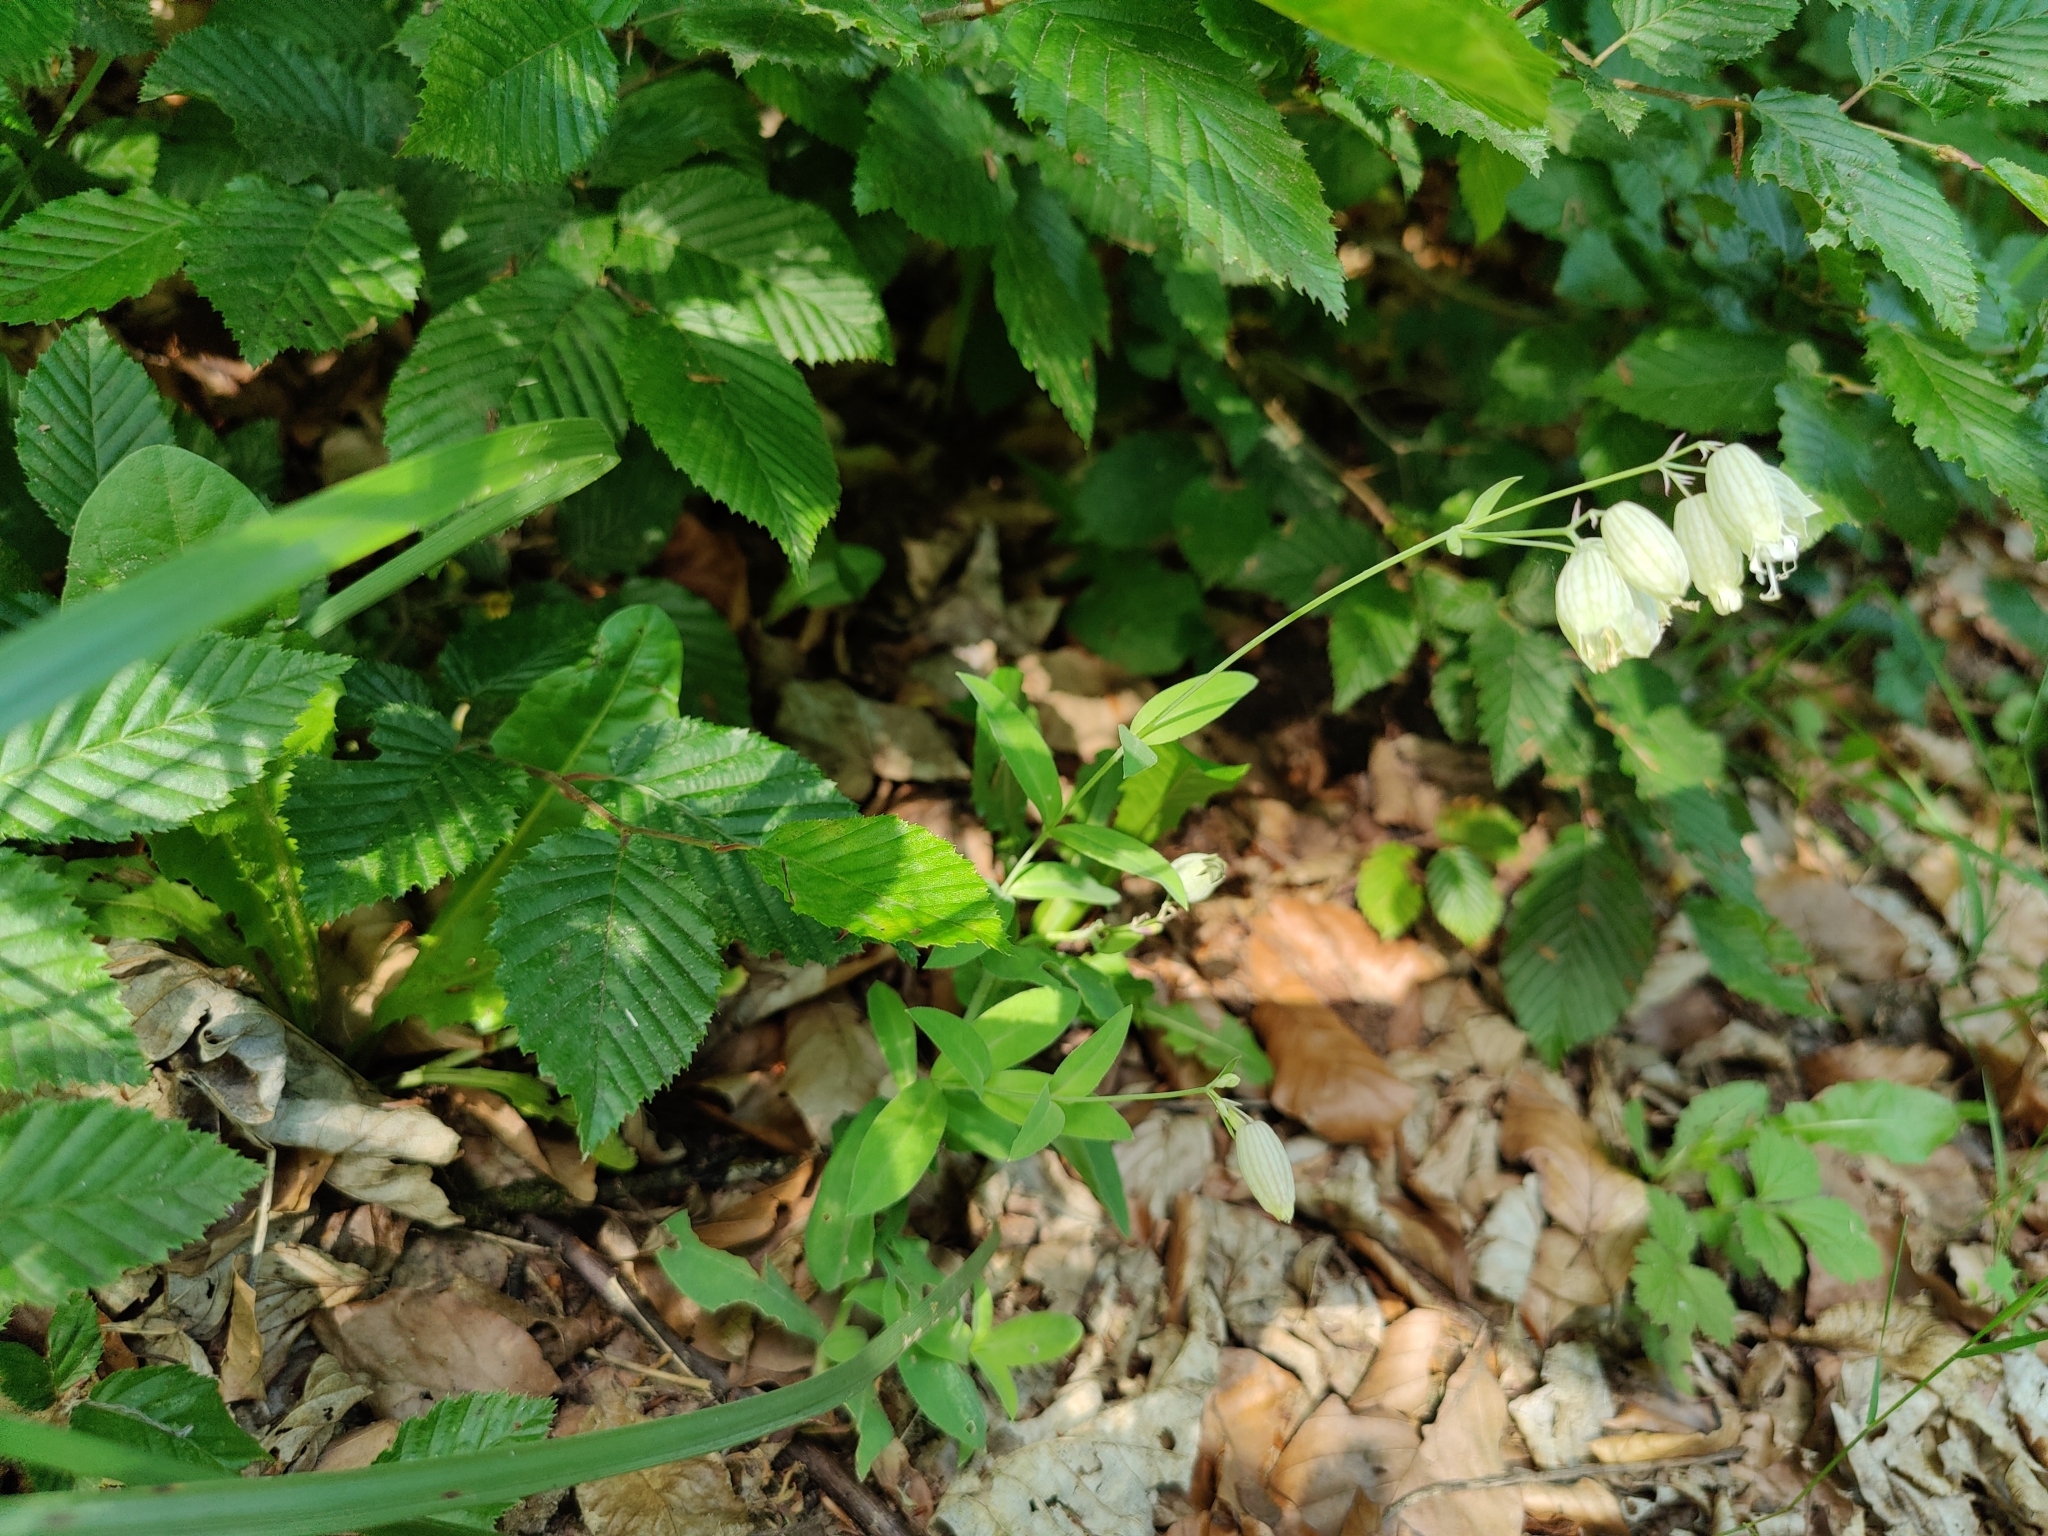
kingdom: Plantae
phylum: Tracheophyta
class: Magnoliopsida
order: Caryophyllales
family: Caryophyllaceae
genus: Silene
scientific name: Silene vulgaris
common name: Bladder campion
